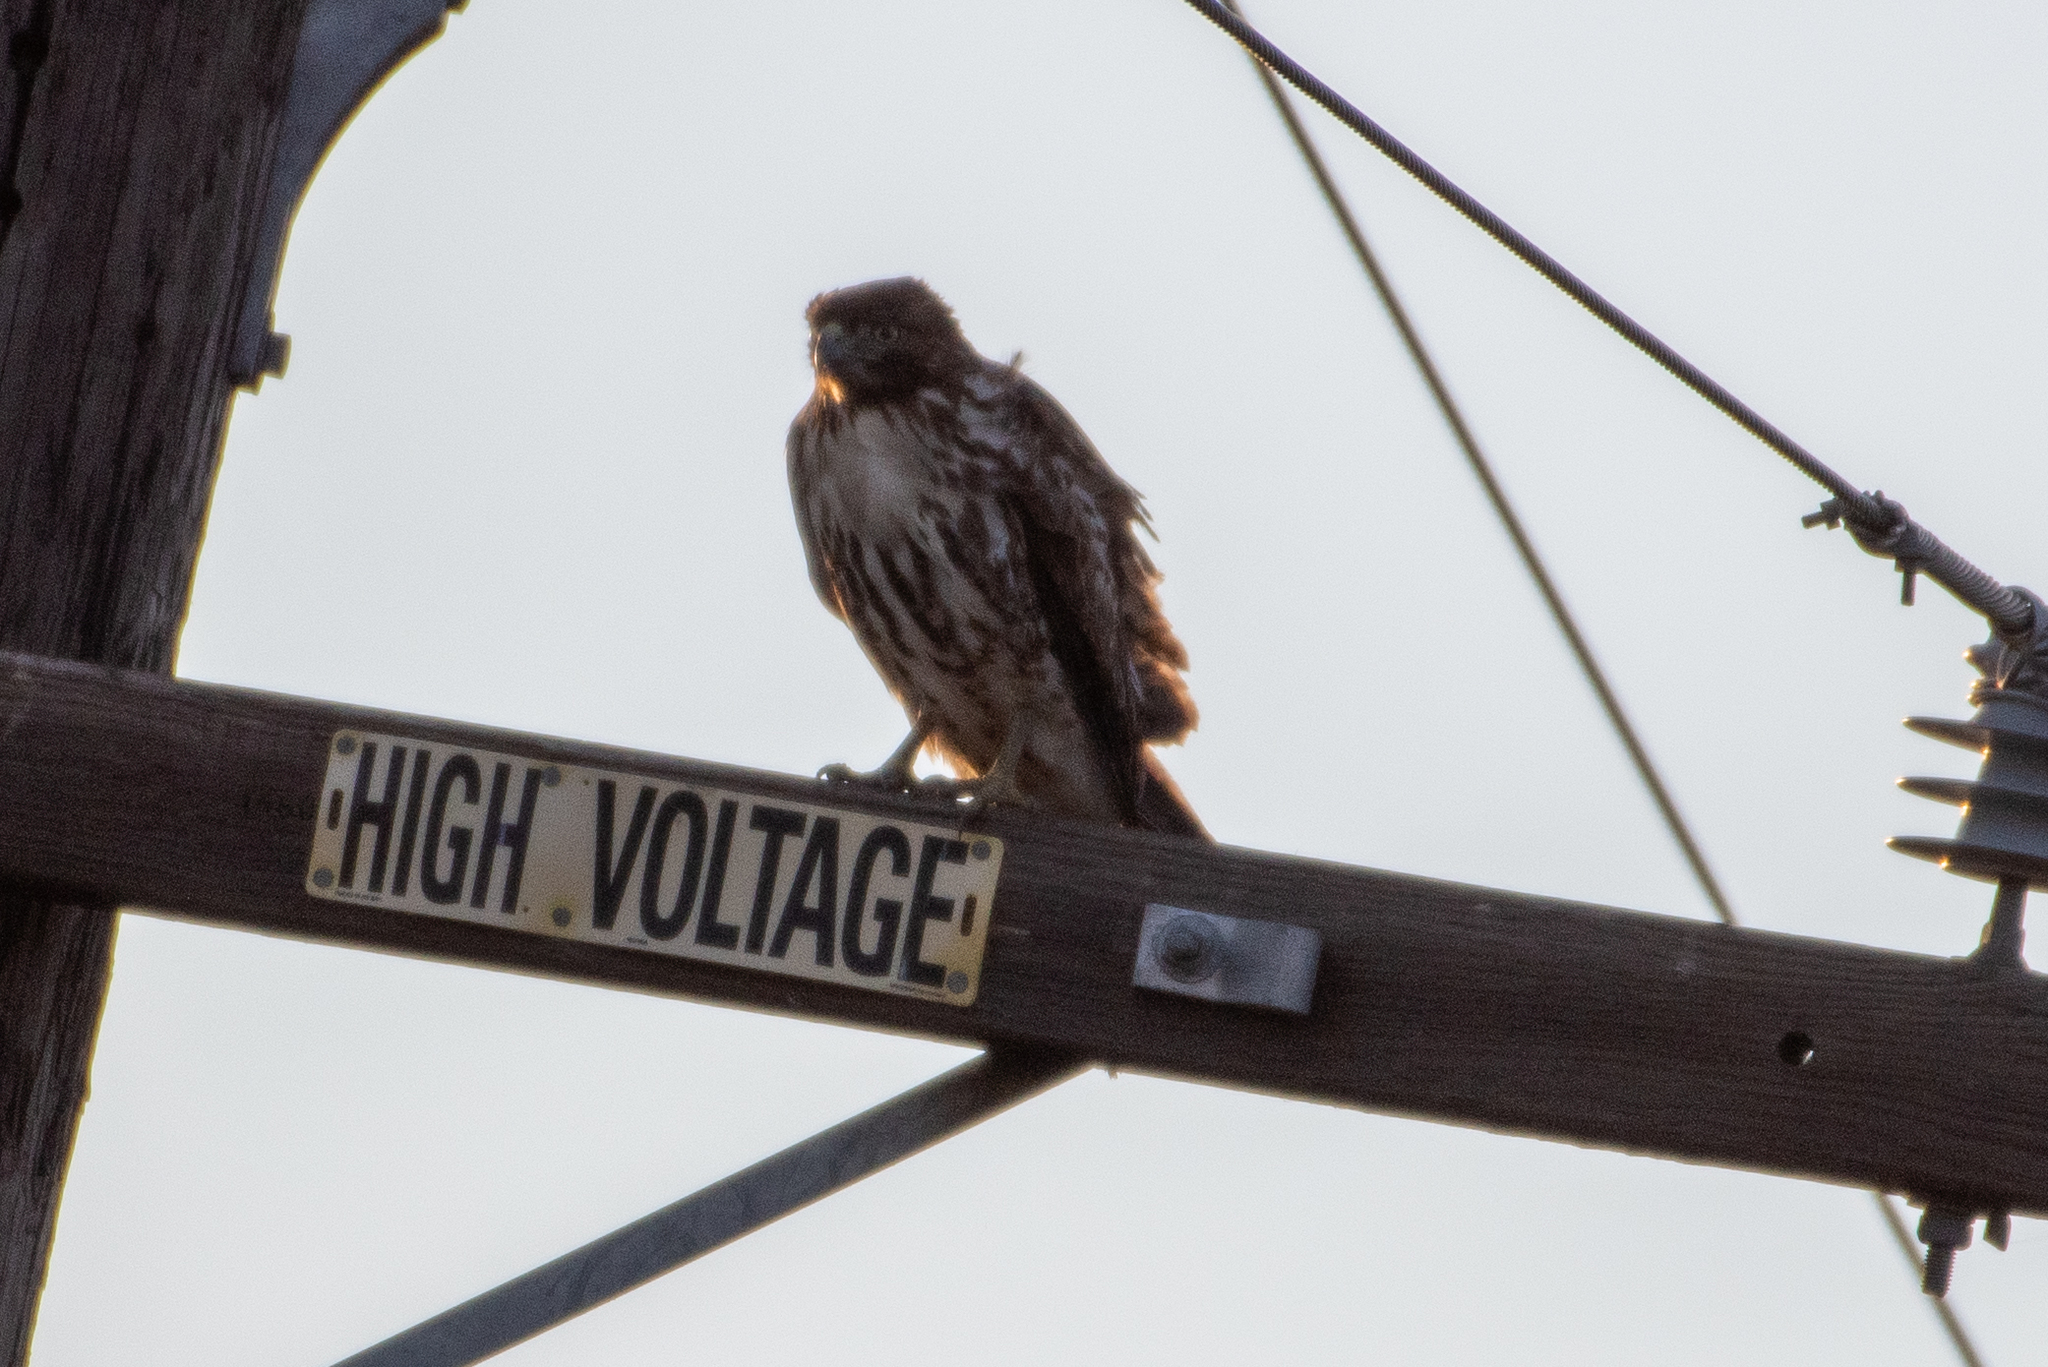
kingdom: Animalia
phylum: Chordata
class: Aves
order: Accipitriformes
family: Accipitridae
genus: Buteo
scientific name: Buteo jamaicensis
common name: Red-tailed hawk
